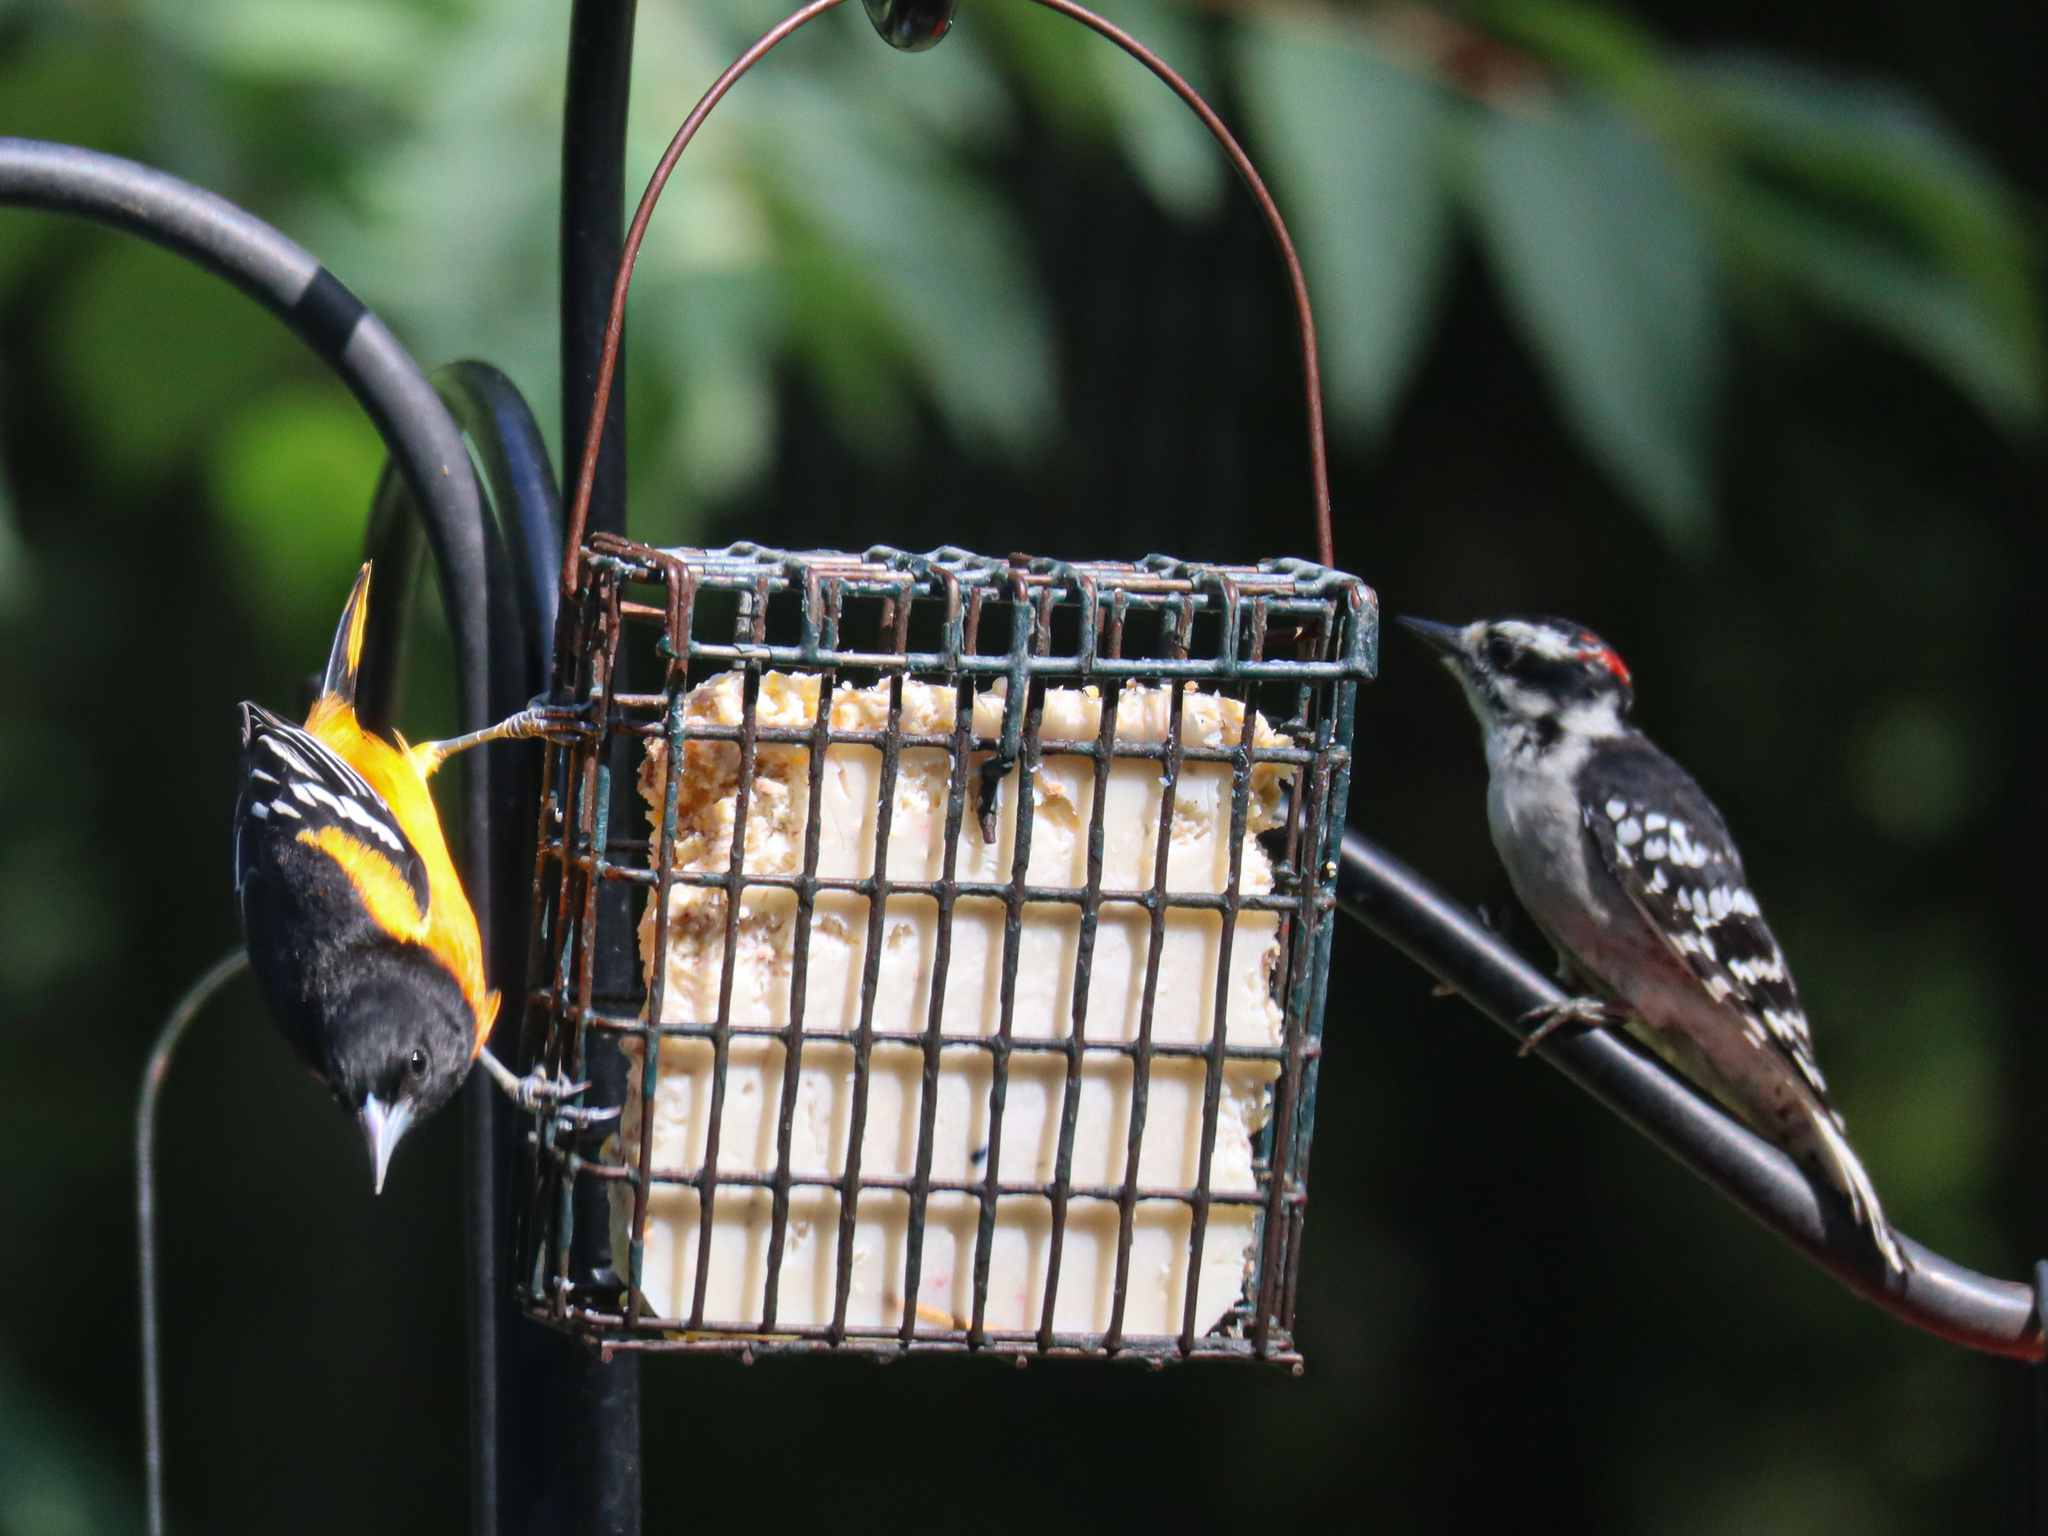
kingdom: Animalia
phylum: Chordata
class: Aves
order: Passeriformes
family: Icteridae
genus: Icterus
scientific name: Icterus galbula
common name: Baltimore oriole
